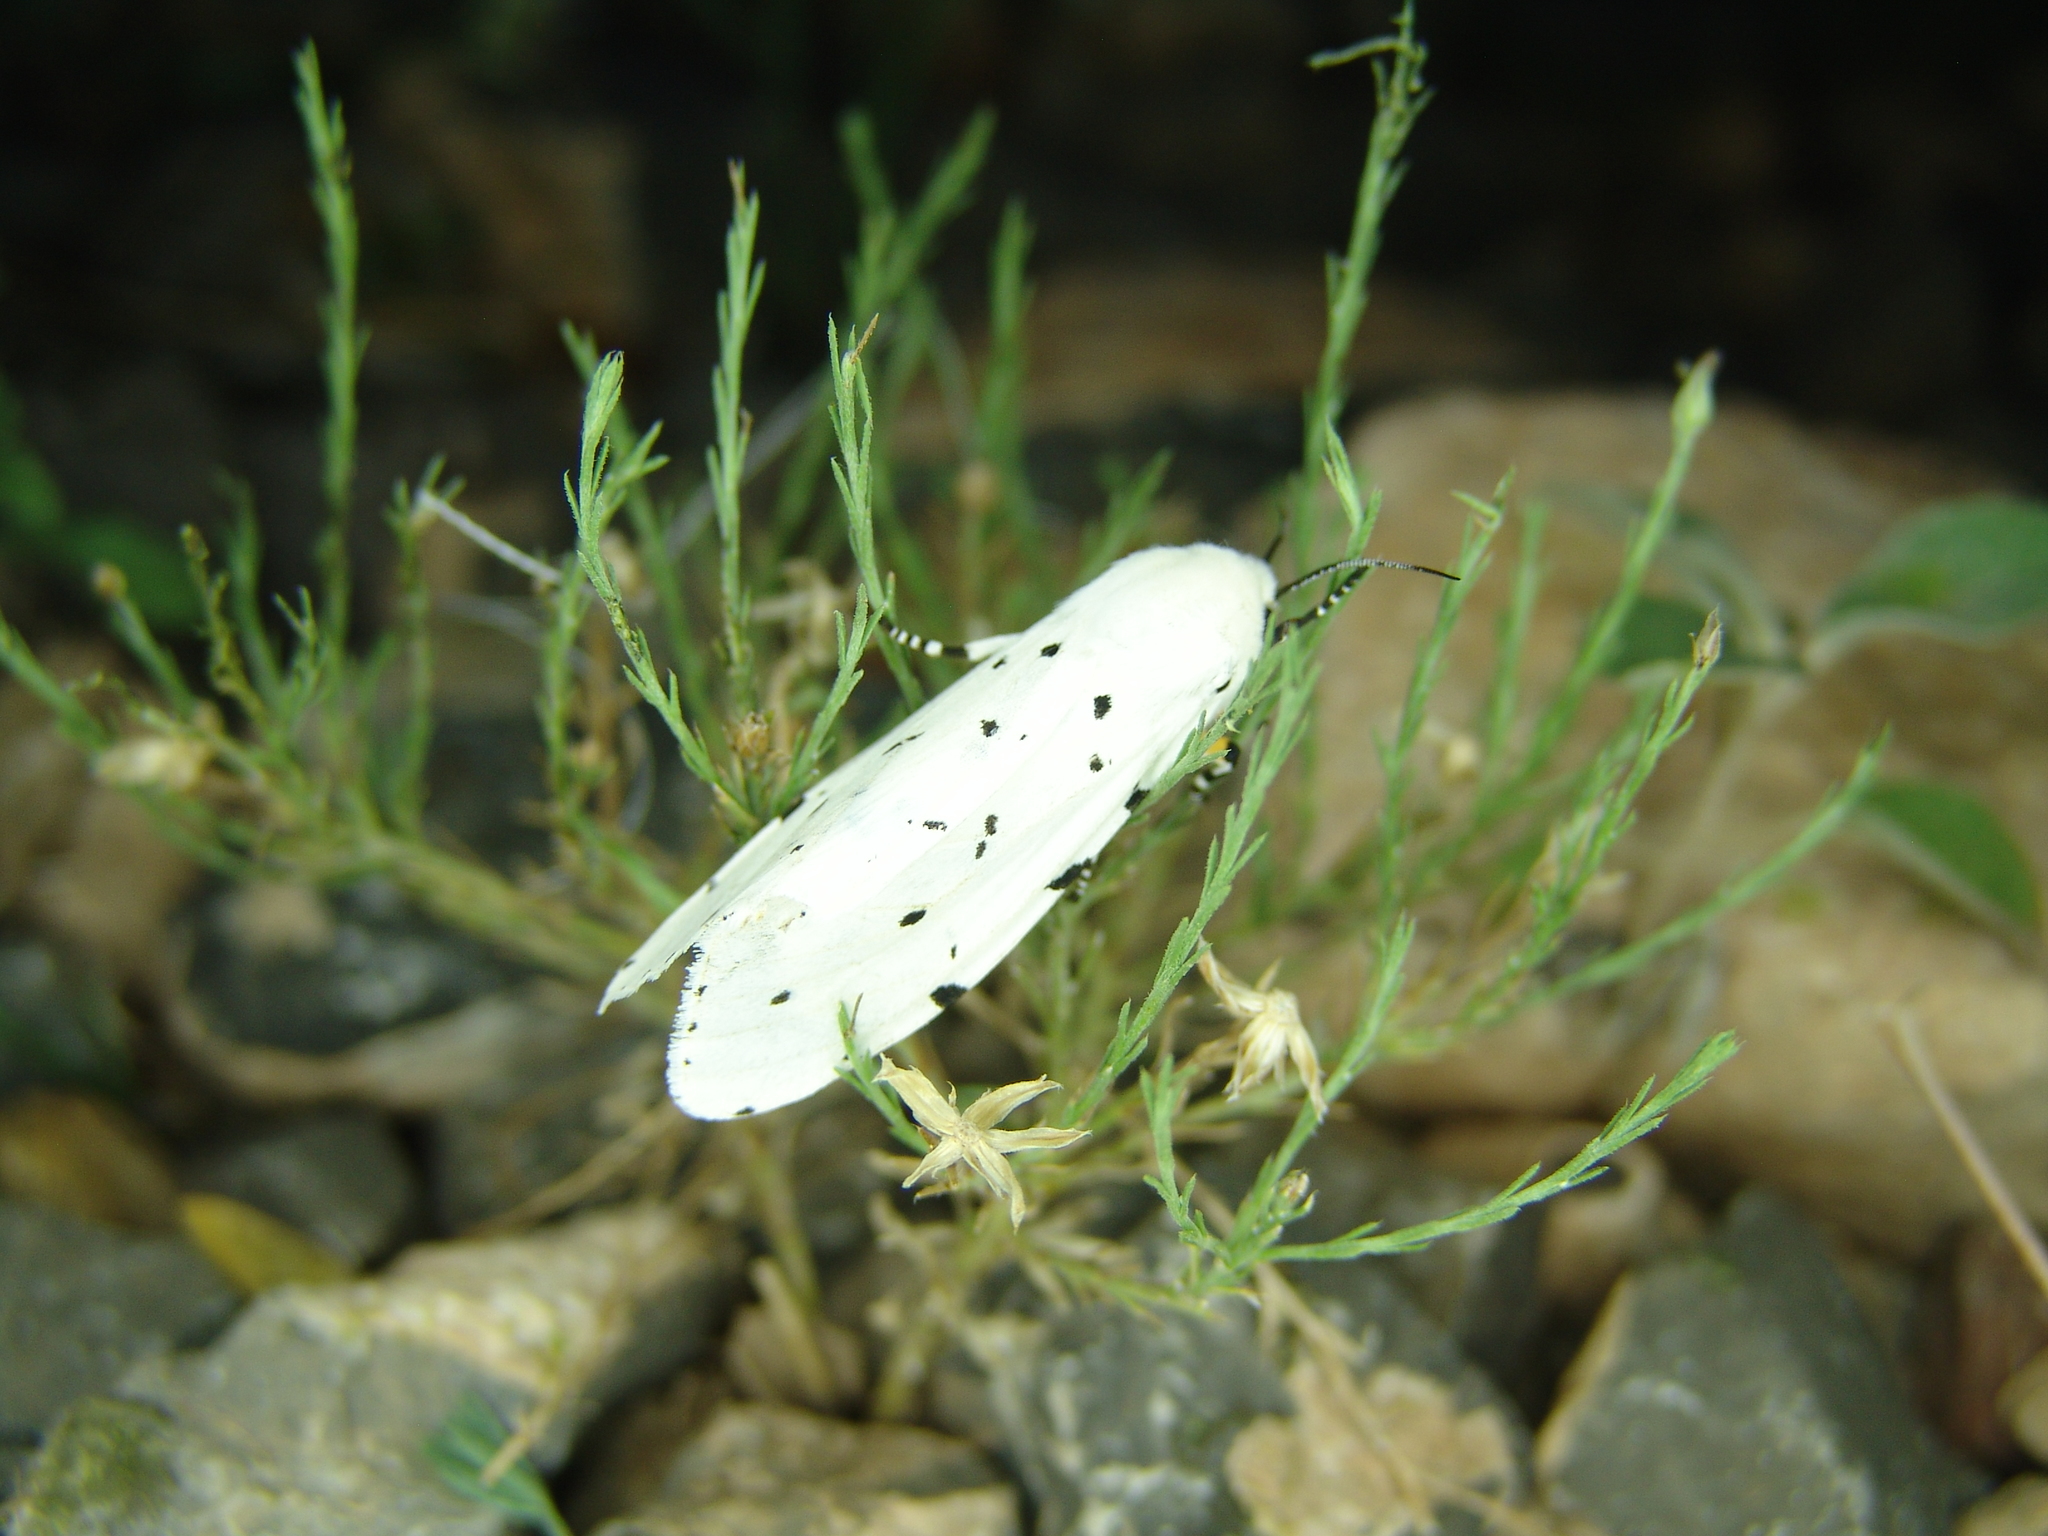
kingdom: Animalia
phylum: Arthropoda
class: Insecta
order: Lepidoptera
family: Erebidae
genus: Estigmene
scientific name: Estigmene acrea
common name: Salt marsh moth
